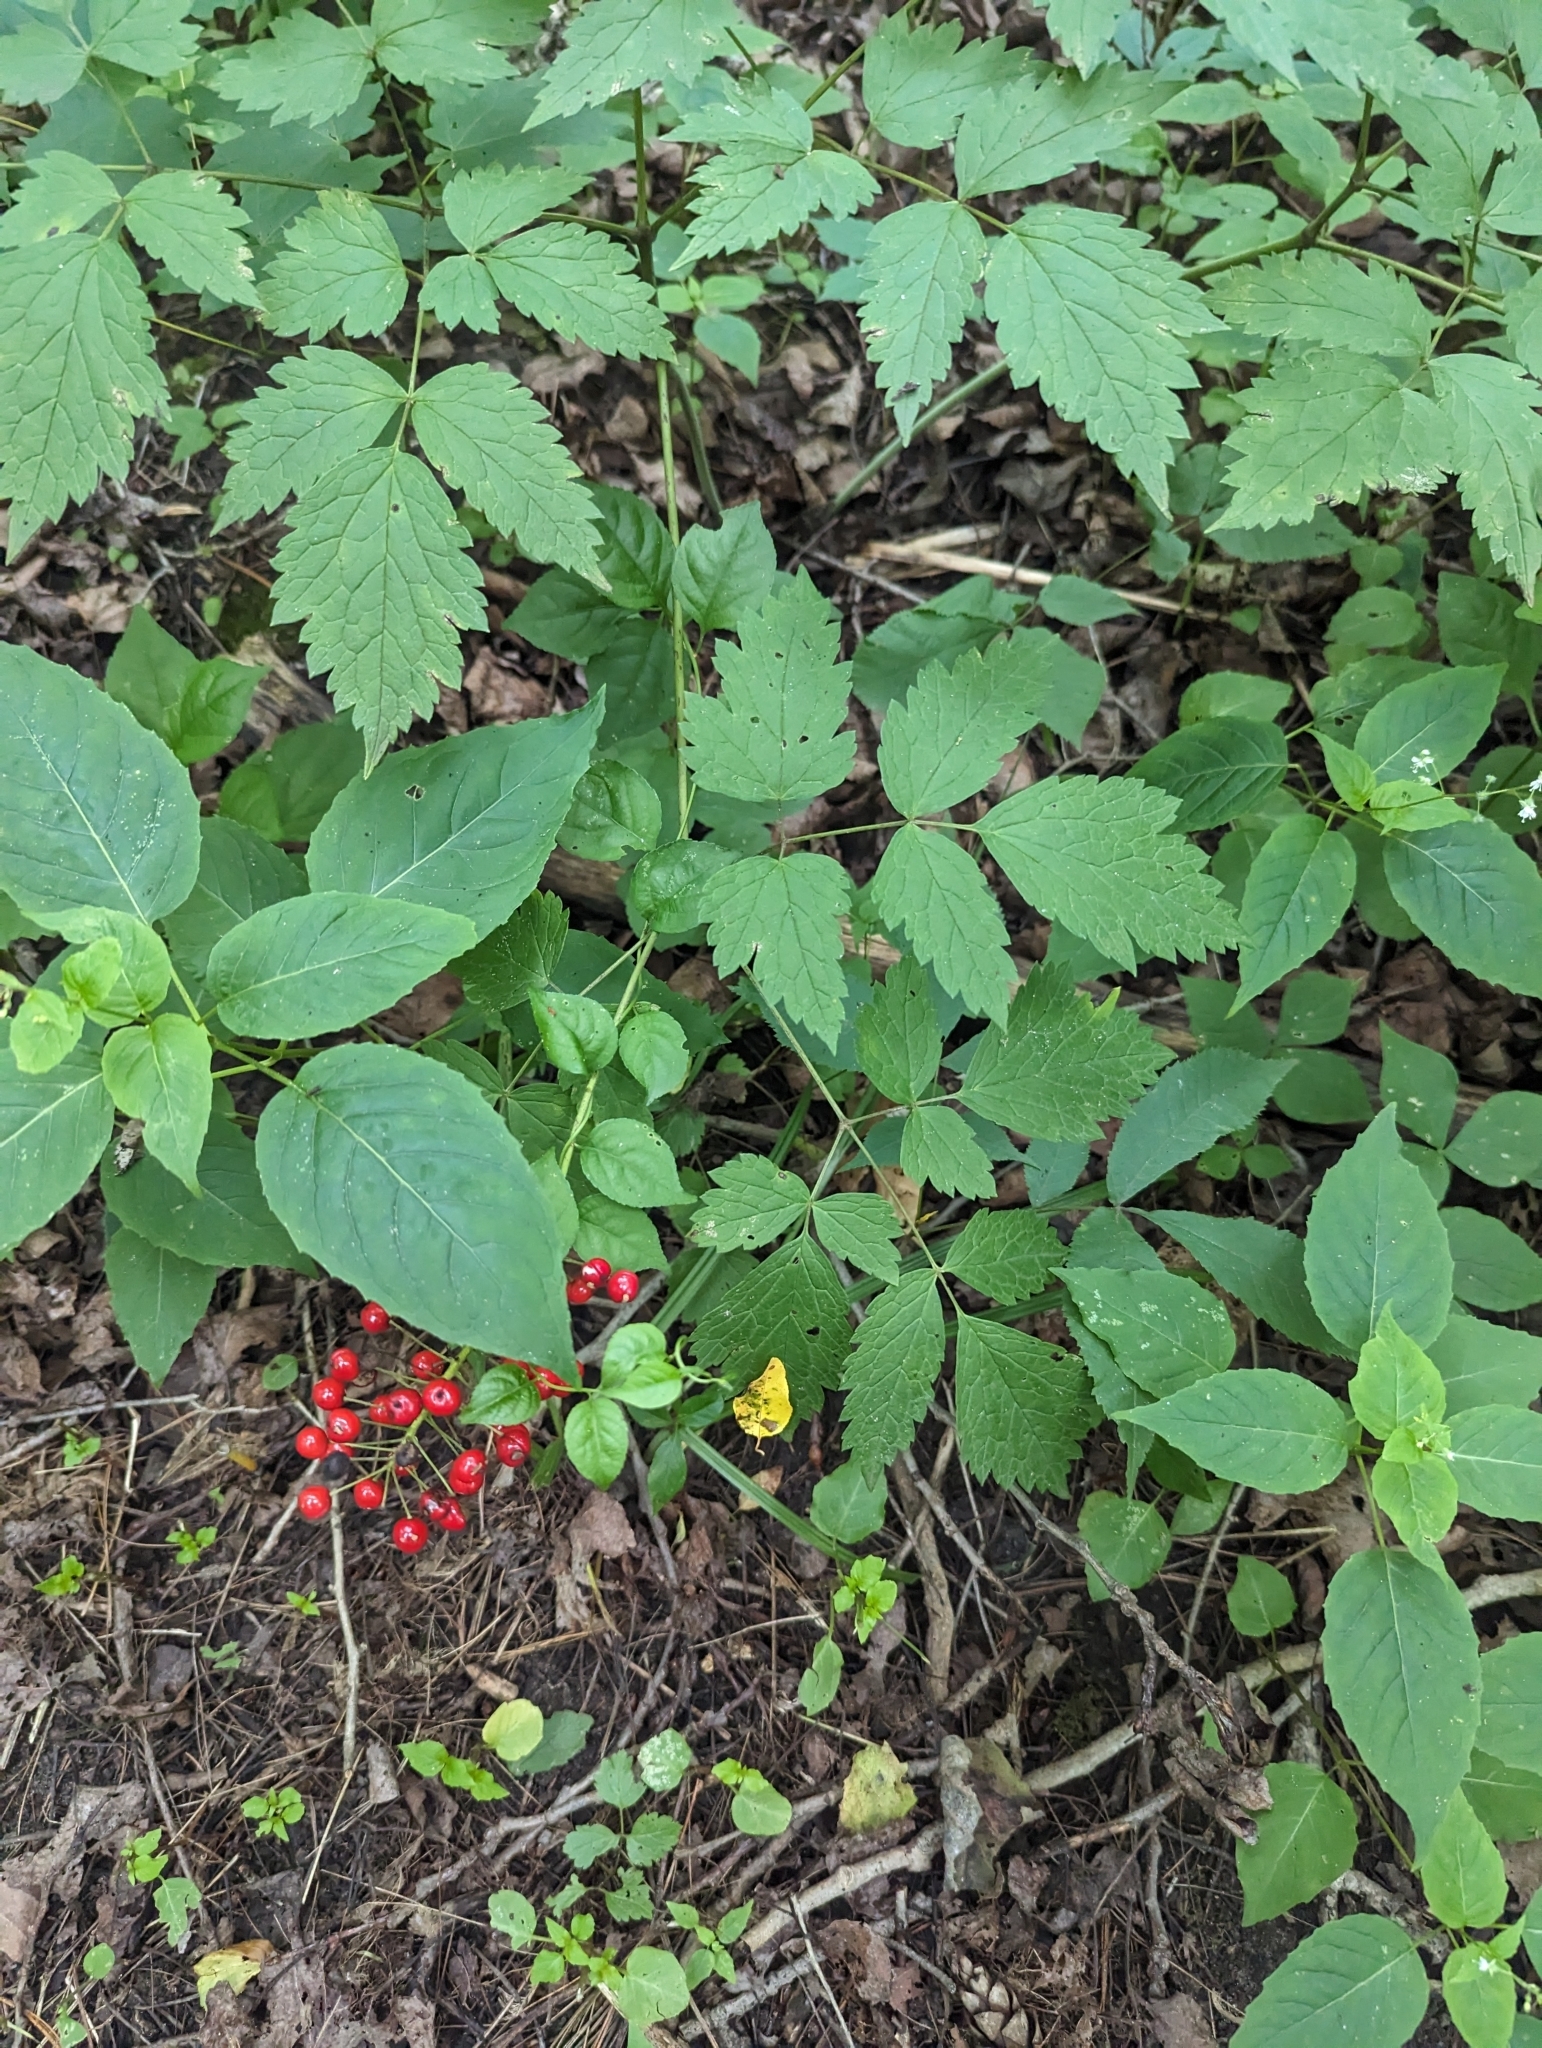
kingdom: Plantae
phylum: Tracheophyta
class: Magnoliopsida
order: Ranunculales
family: Ranunculaceae
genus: Actaea
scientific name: Actaea rubra
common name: Red baneberry
